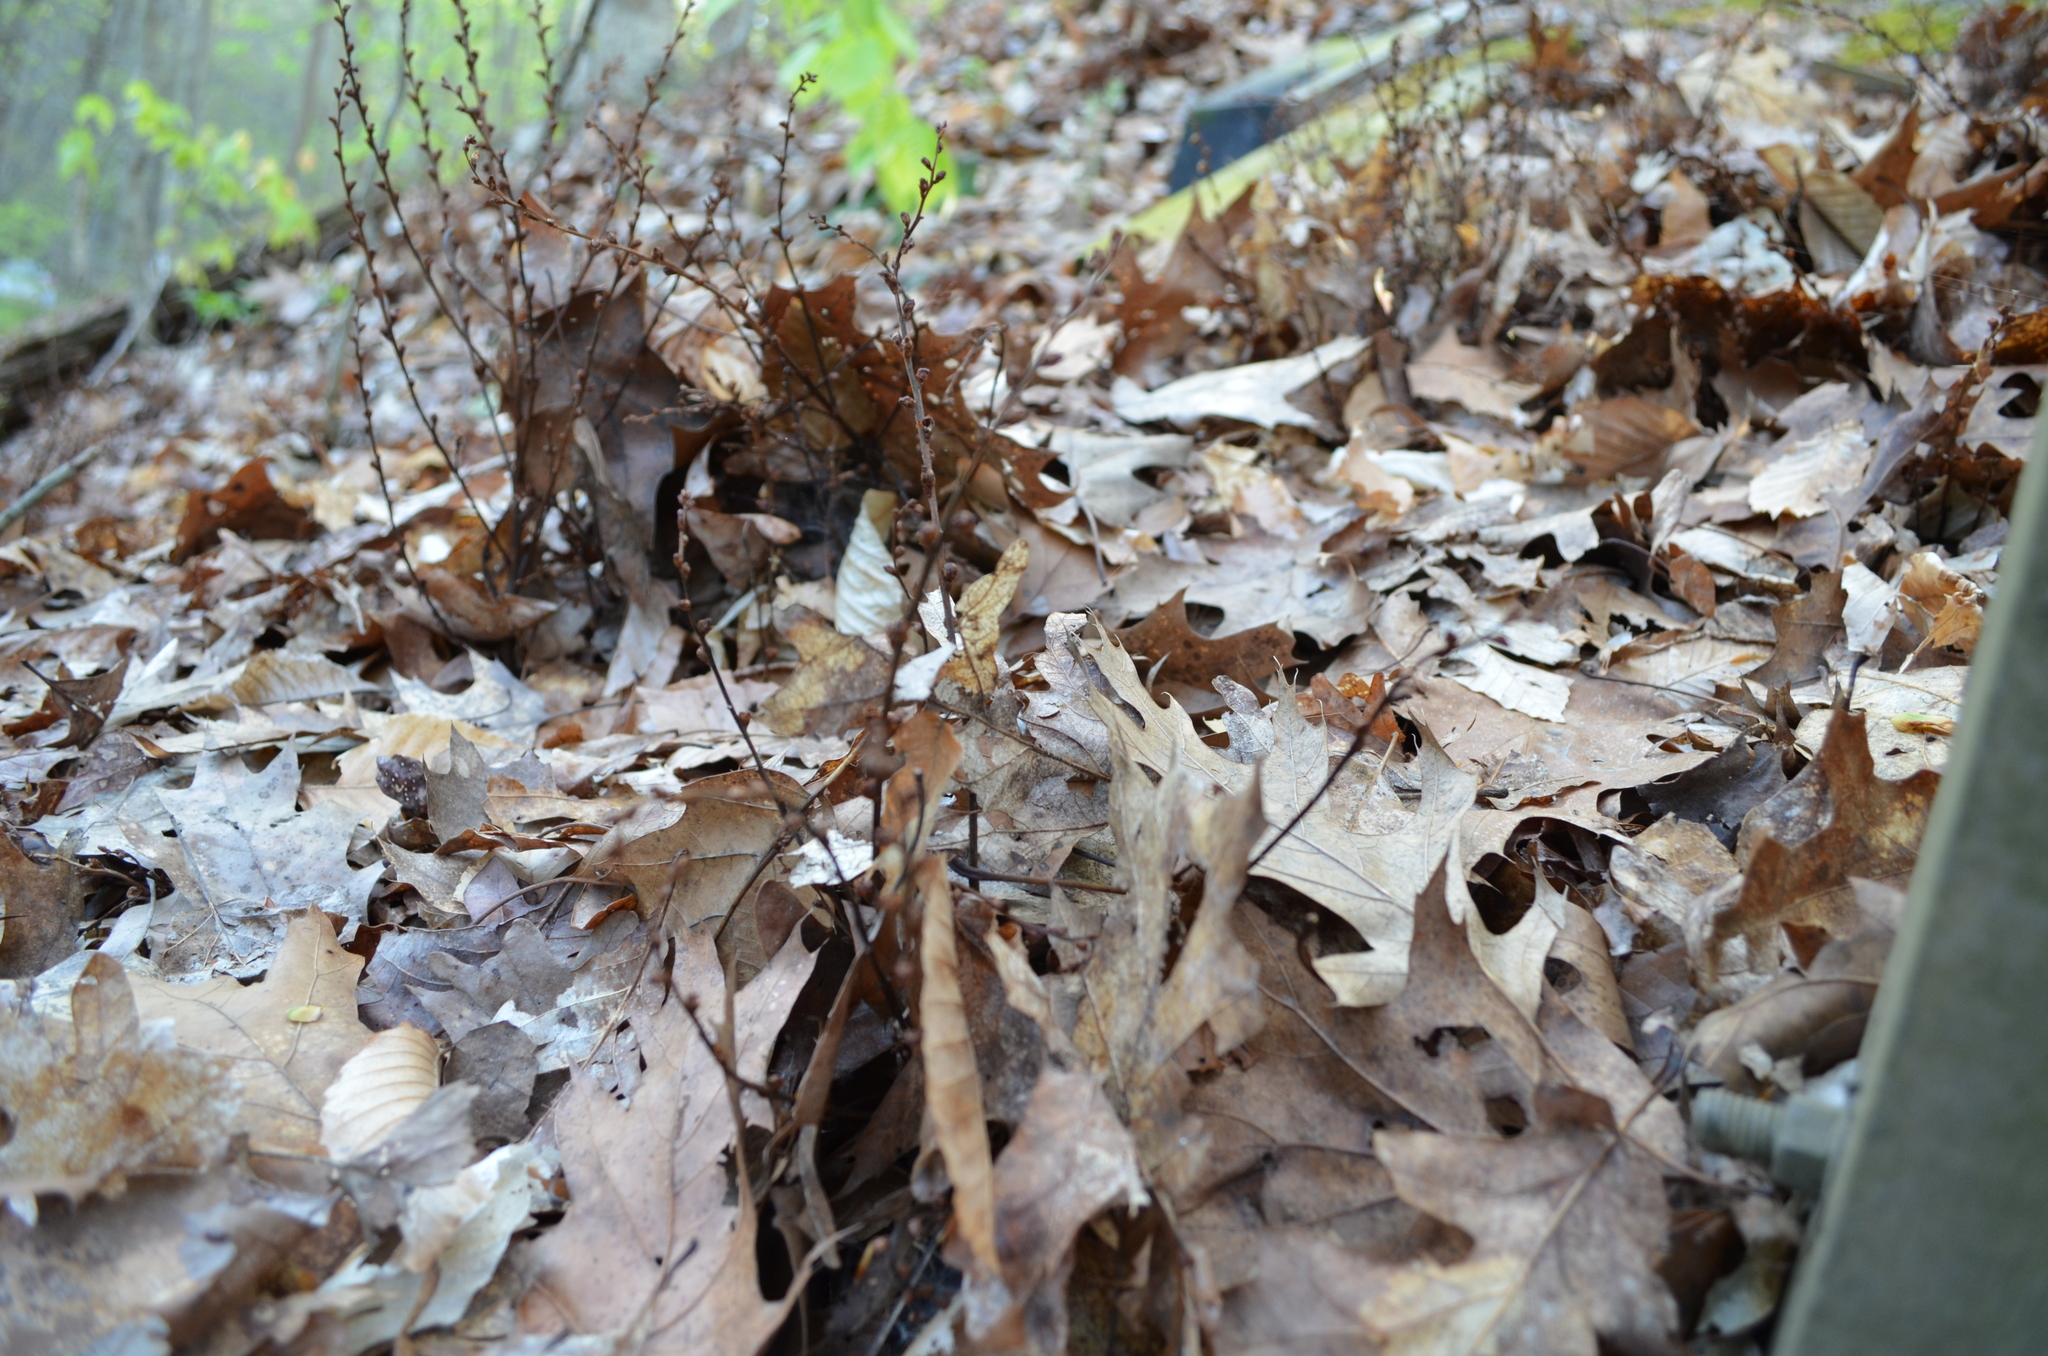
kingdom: Plantae
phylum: Tracheophyta
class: Magnoliopsida
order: Lamiales
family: Orobanchaceae
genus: Epifagus
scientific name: Epifagus virginiana
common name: Beechdrops
